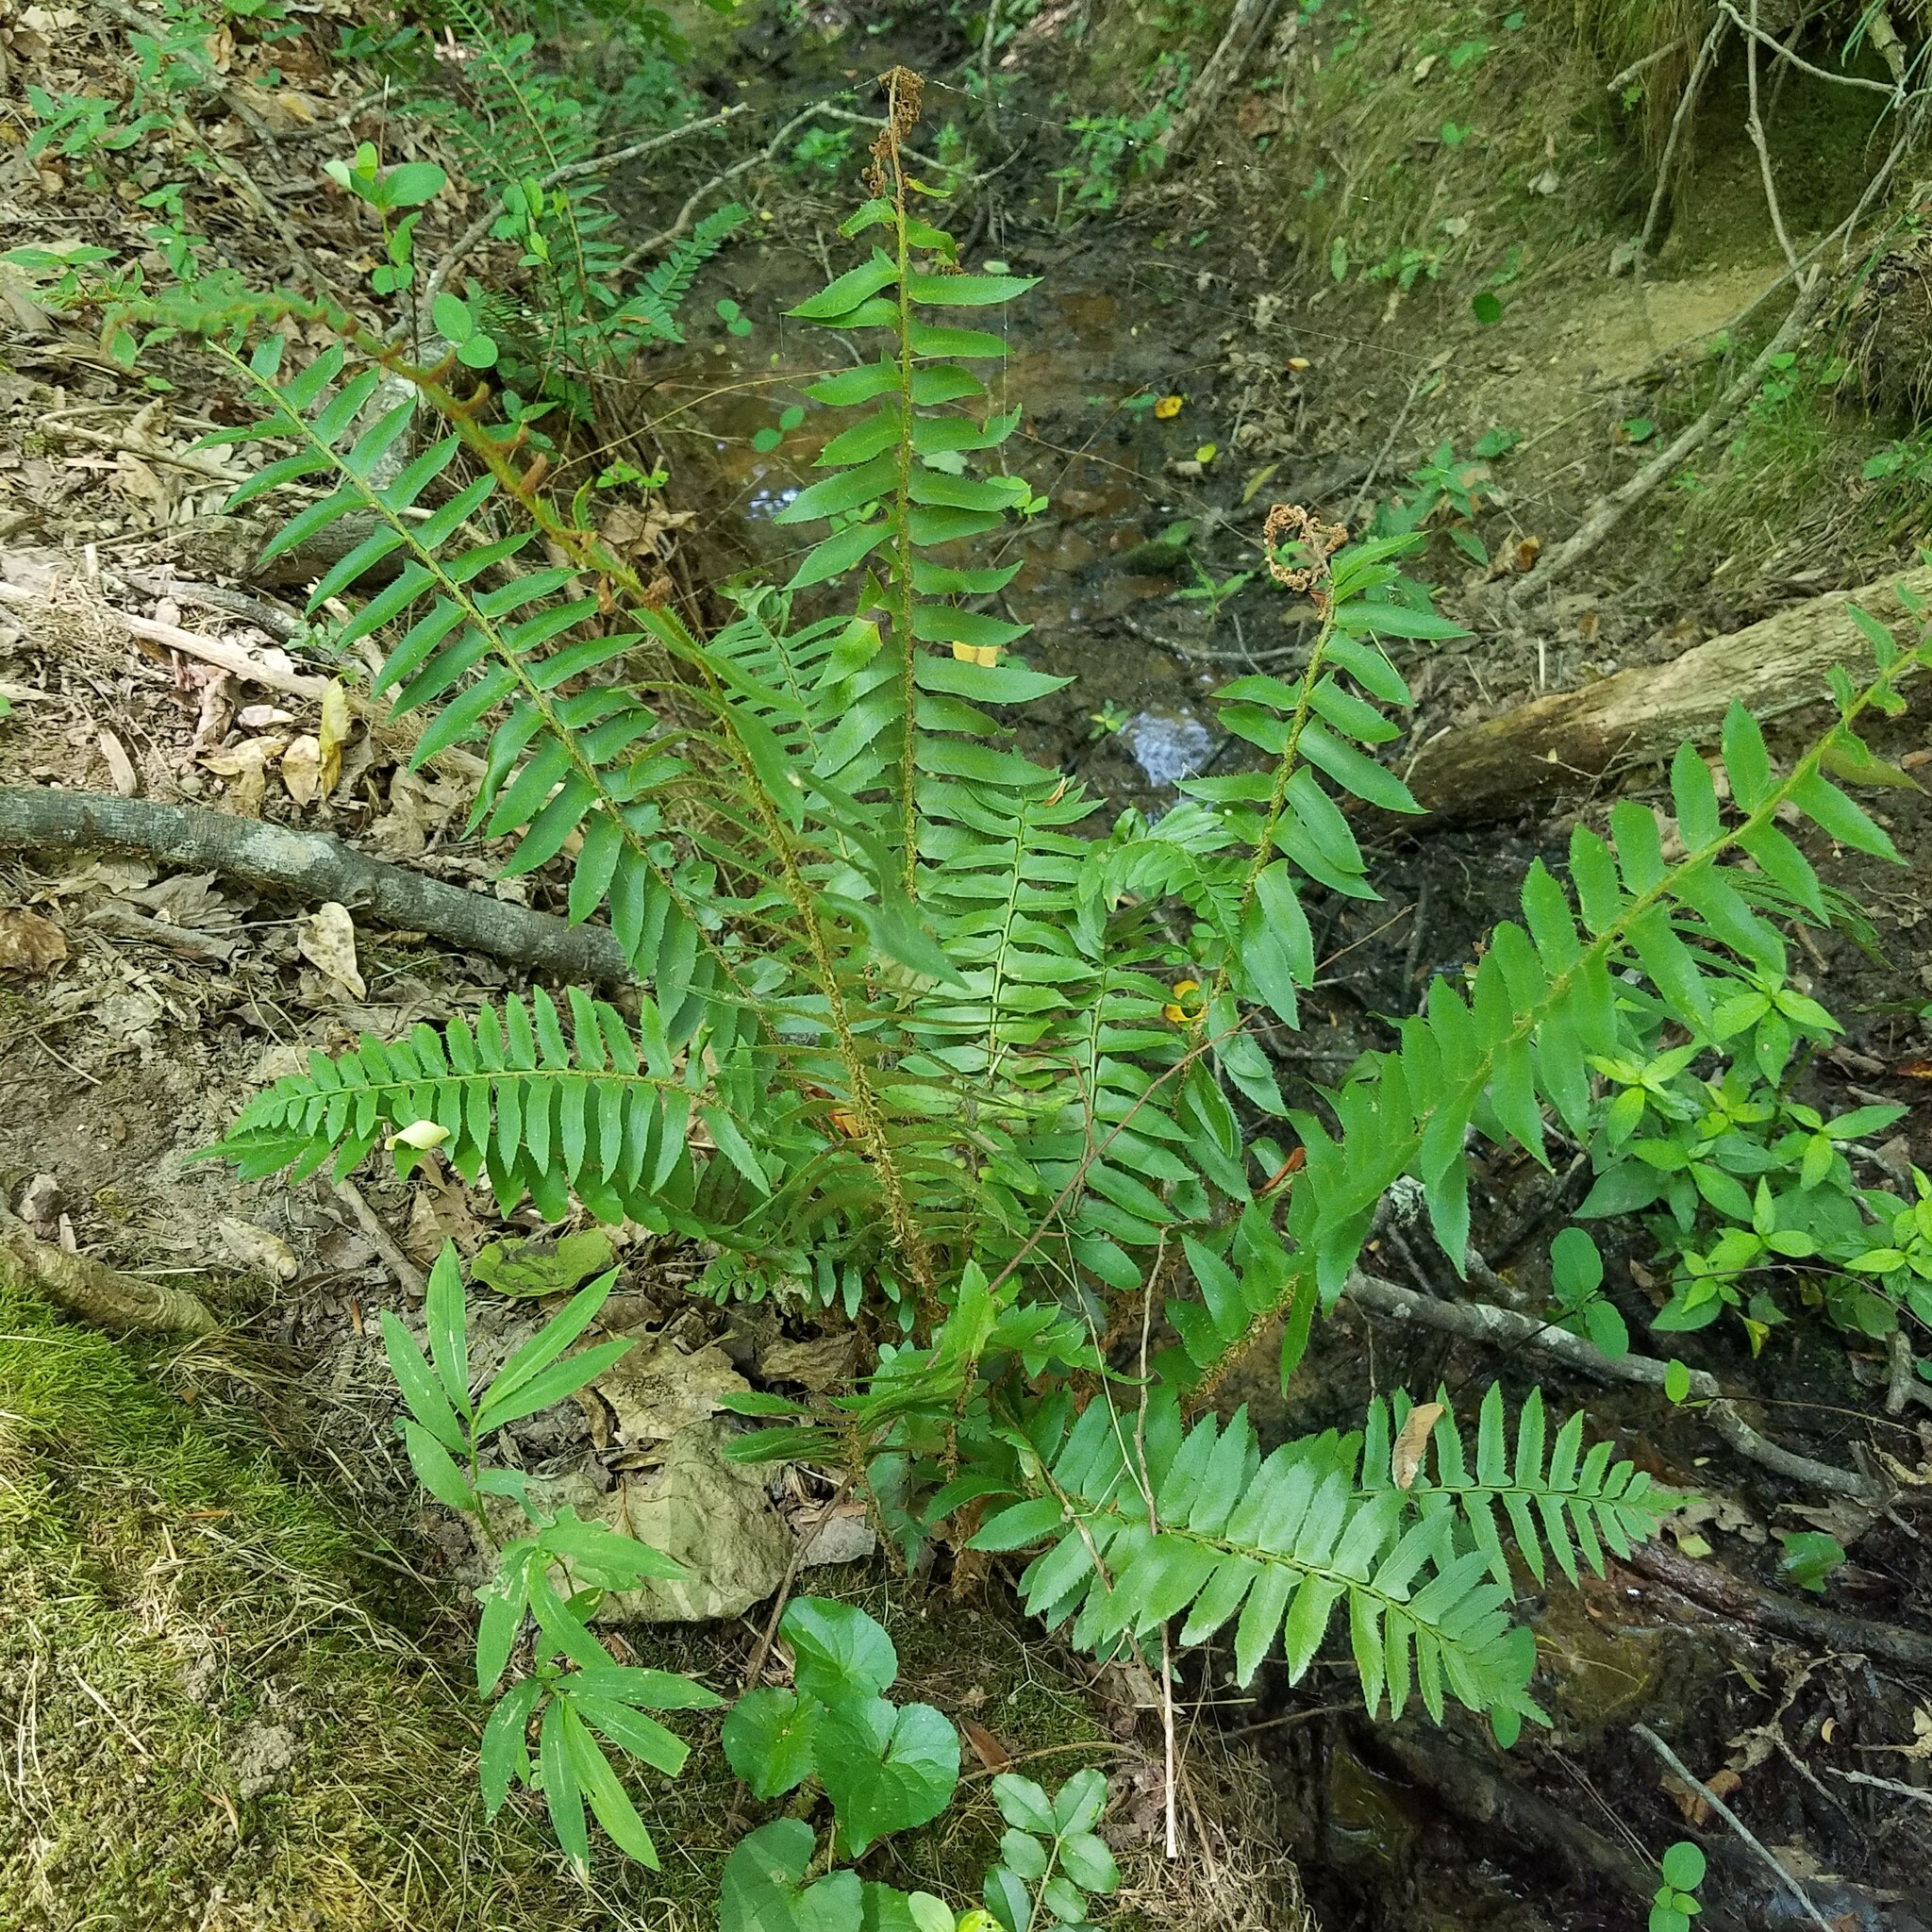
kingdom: Plantae
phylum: Tracheophyta
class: Polypodiopsida
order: Polypodiales
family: Dryopteridaceae
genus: Polystichum
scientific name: Polystichum acrostichoides
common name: Christmas fern
